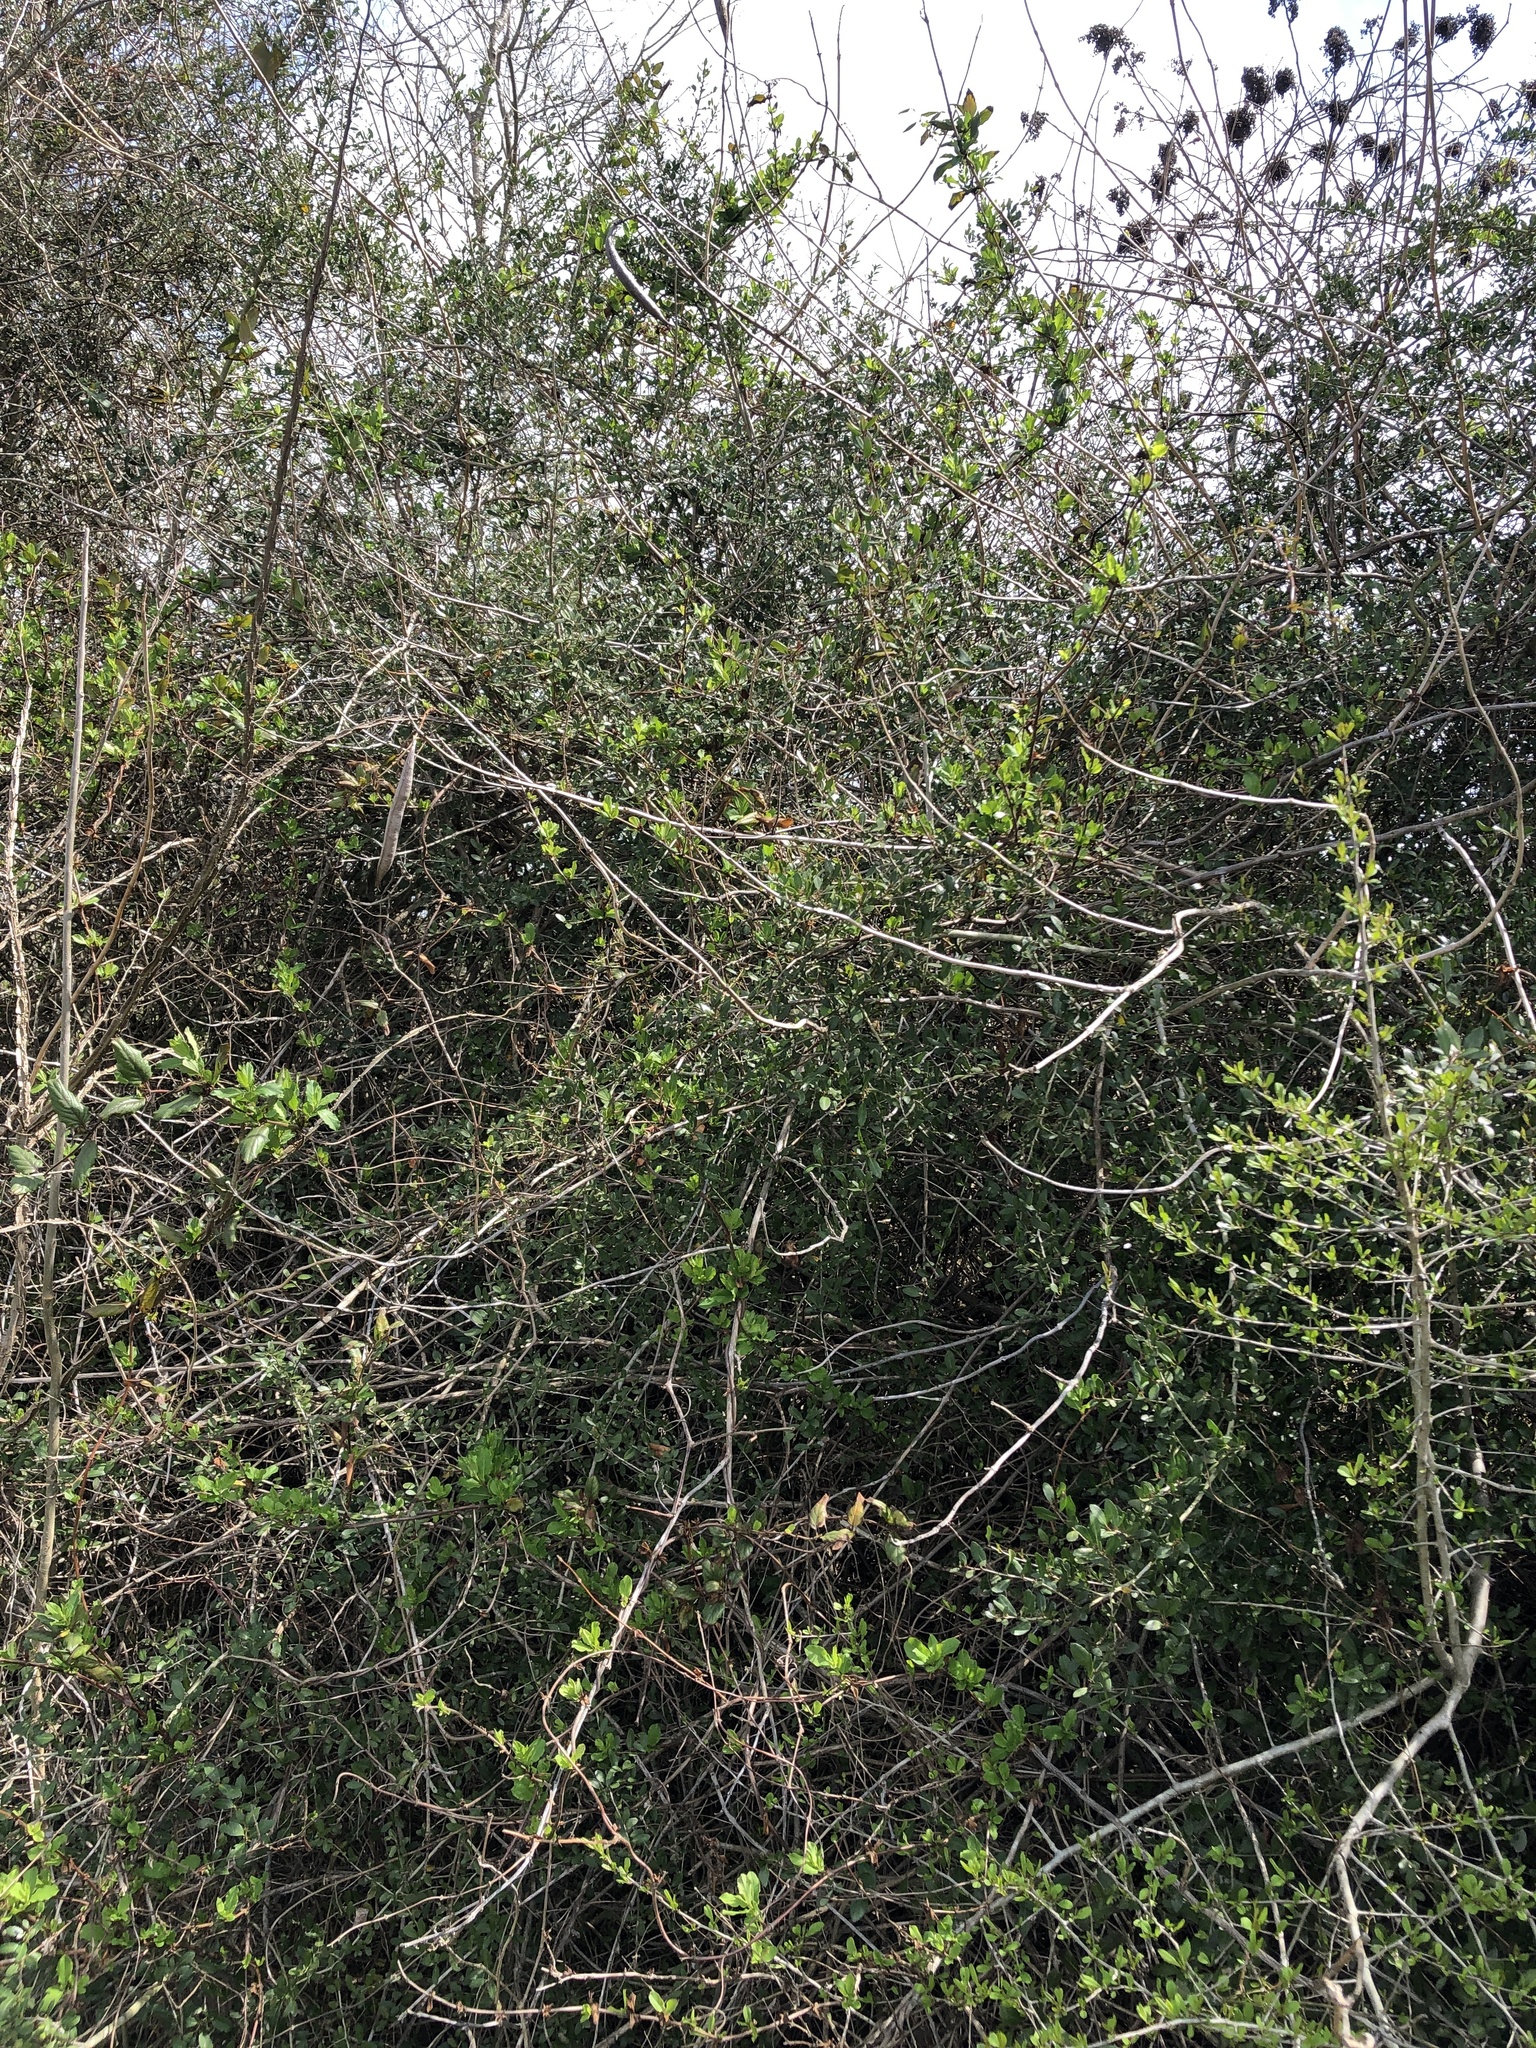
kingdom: Plantae
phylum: Tracheophyta
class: Magnoliopsida
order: Lamiales
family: Bignoniaceae
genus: Campsis
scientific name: Campsis radicans
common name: Trumpet-creeper
